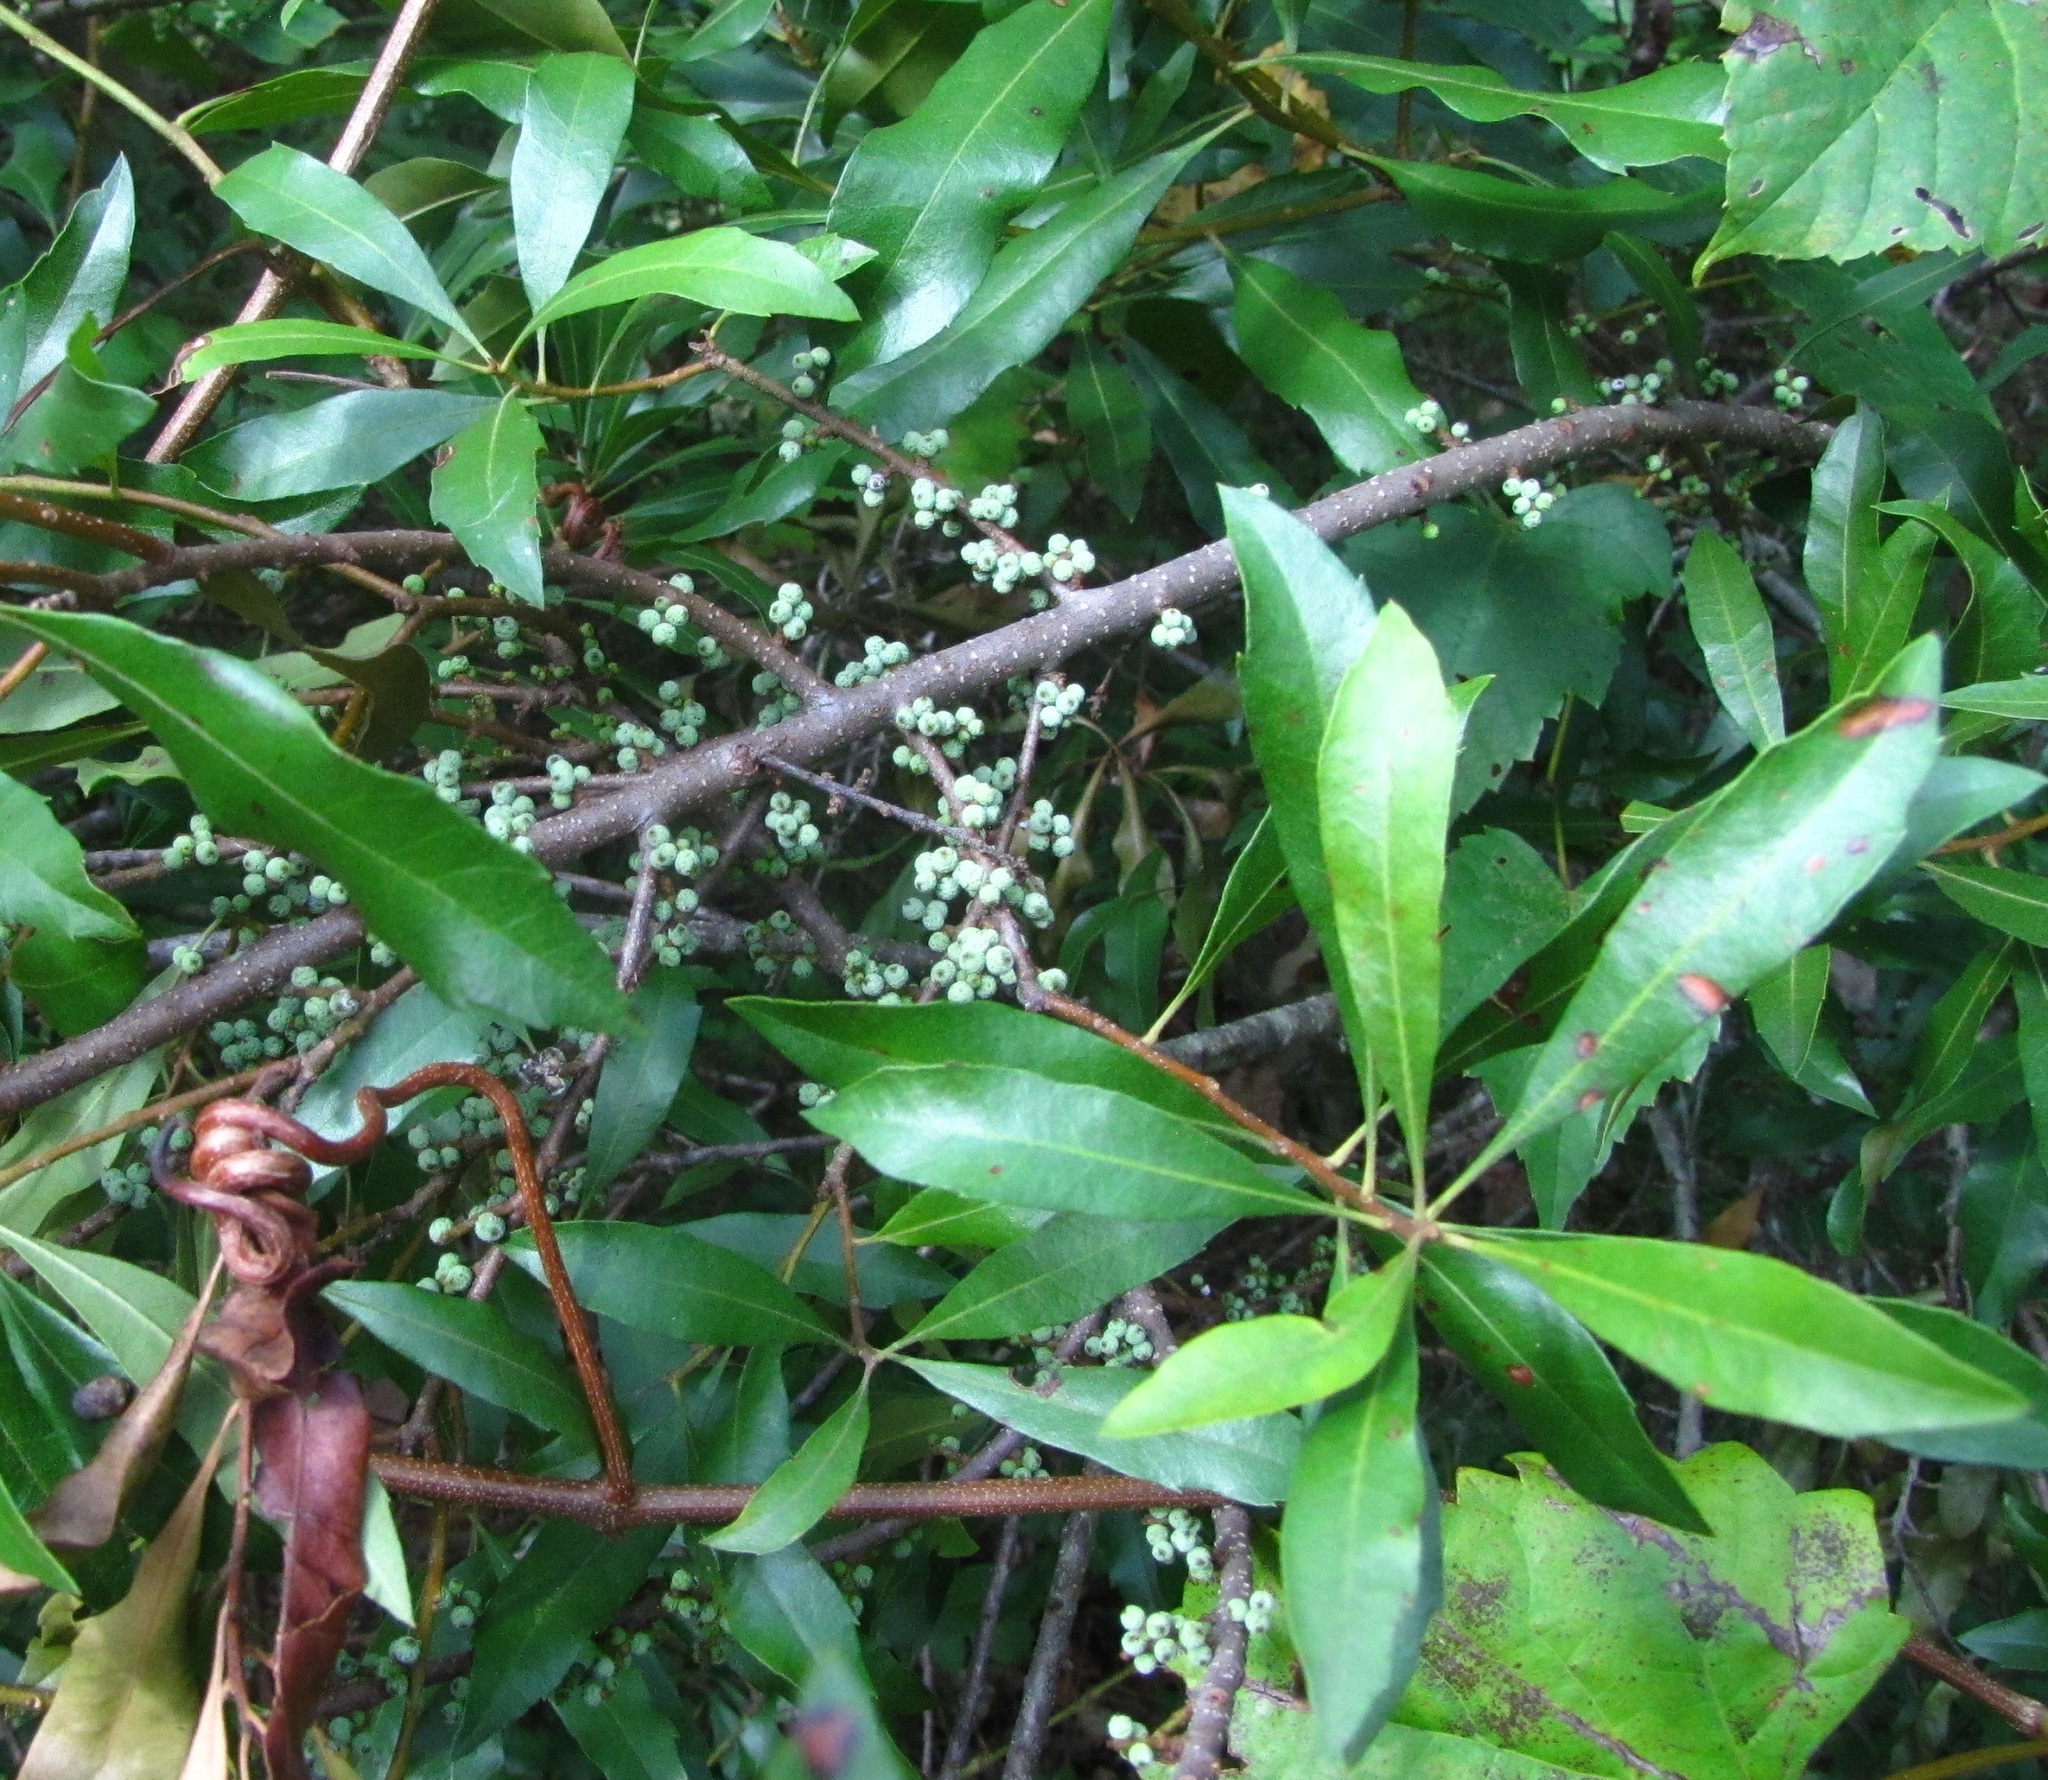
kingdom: Plantae
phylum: Tracheophyta
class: Magnoliopsida
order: Fagales
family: Myricaceae
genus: Morella
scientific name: Morella cerifera
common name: Wax myrtle
